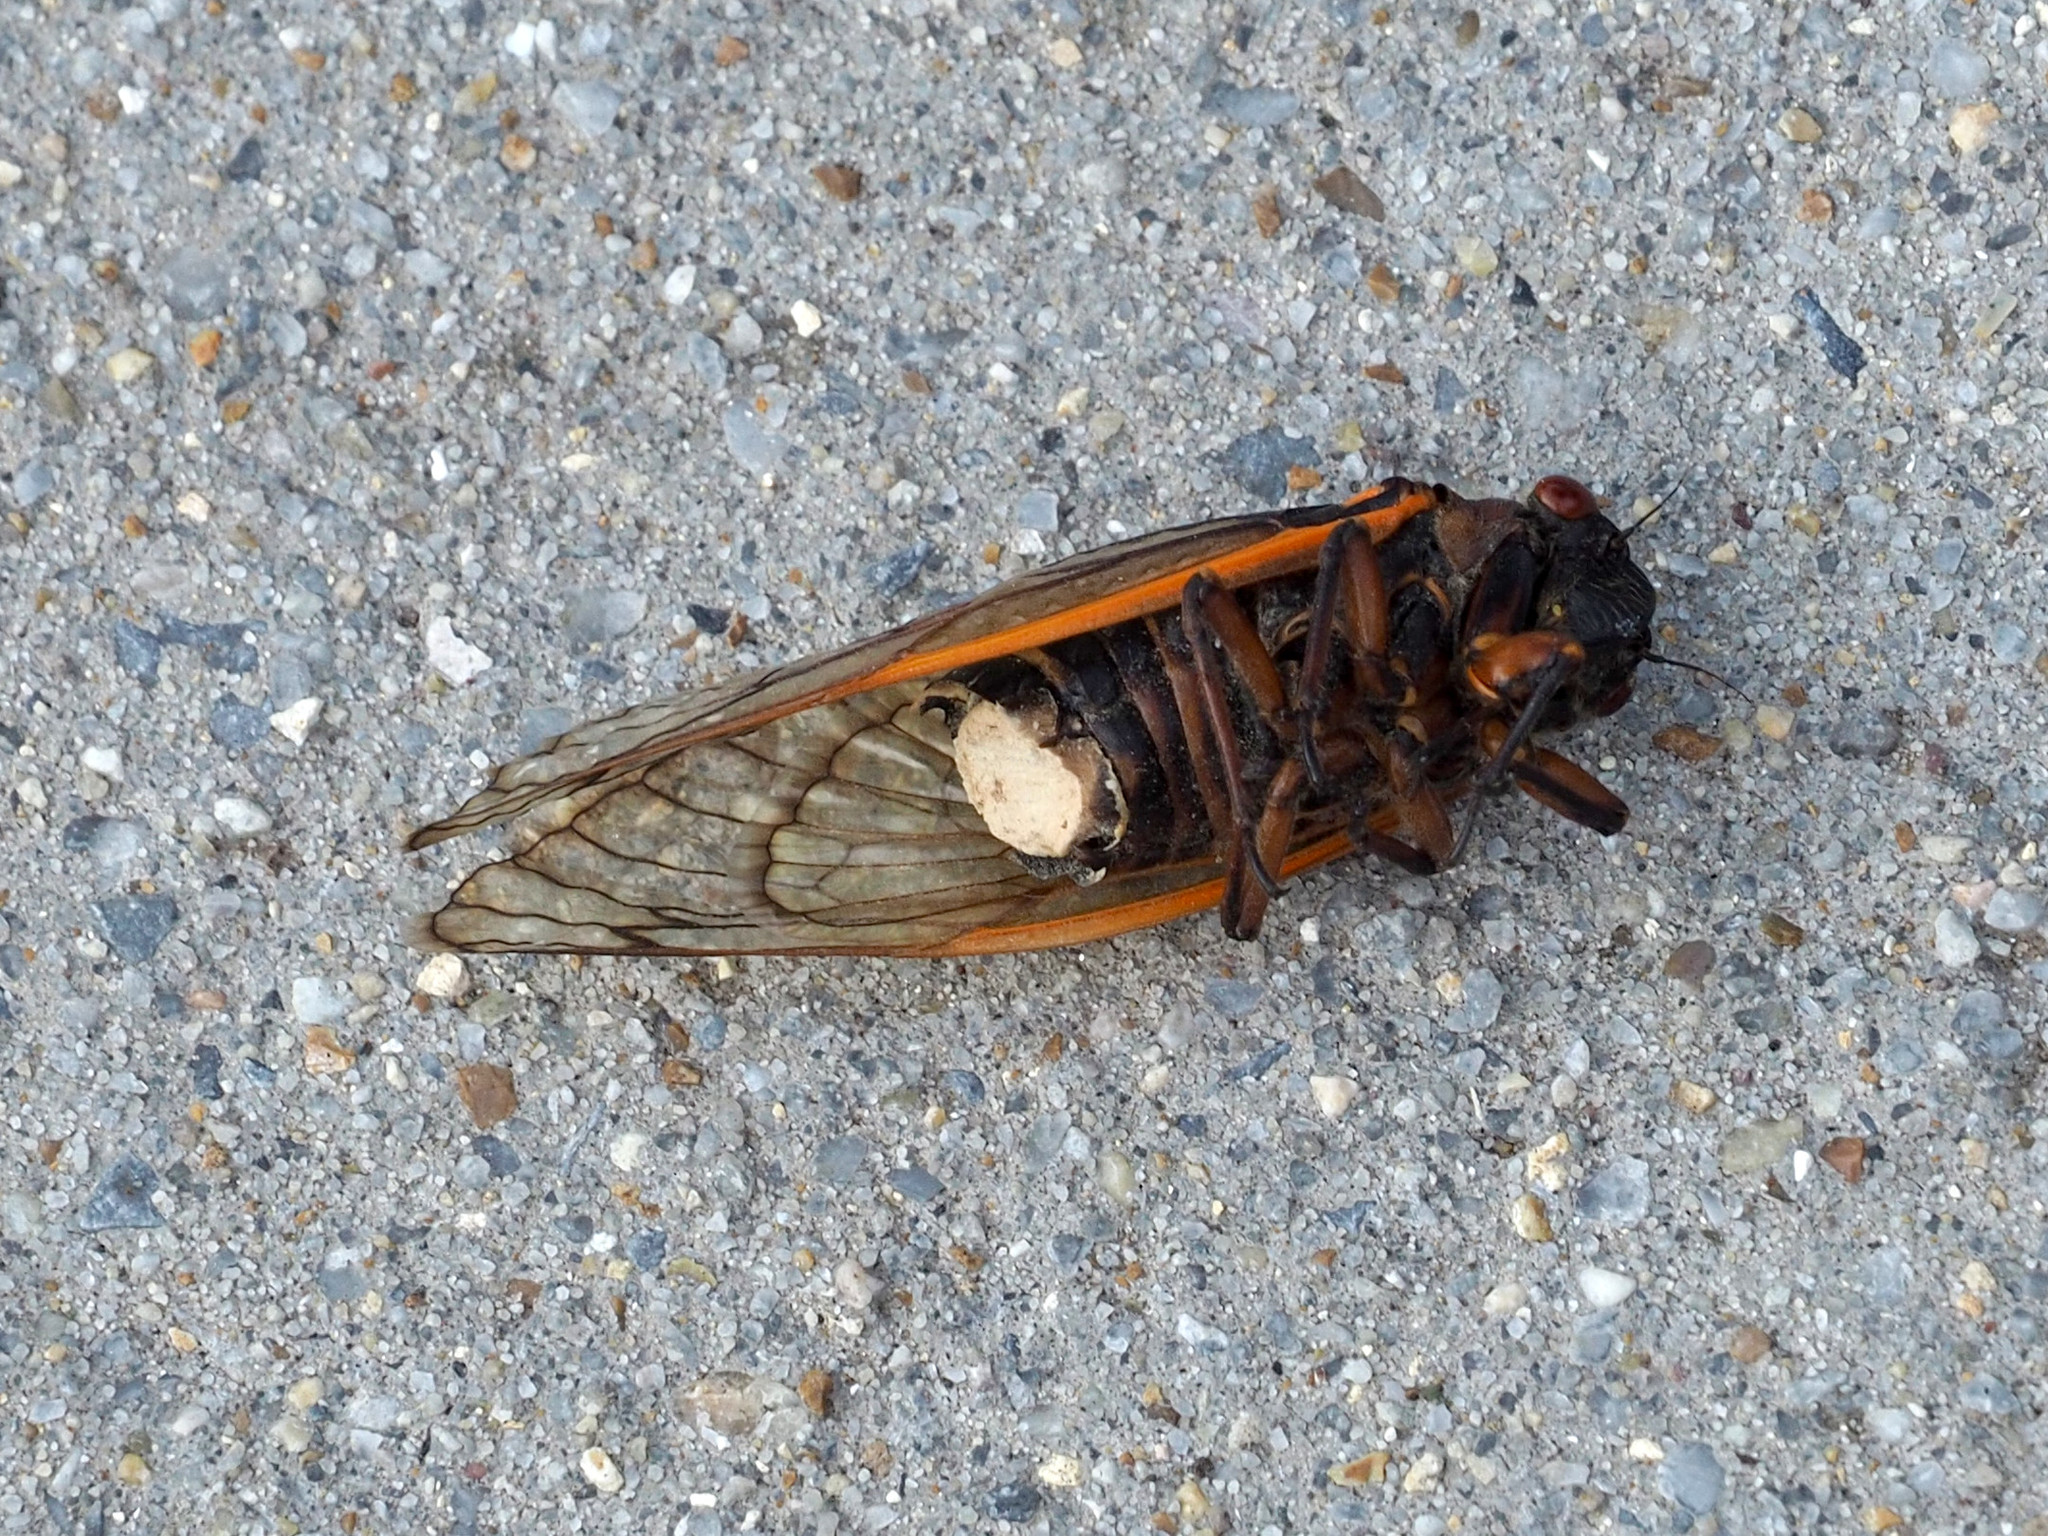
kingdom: Fungi
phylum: Entomophthoromycota
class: Entomophthoromycetes
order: Entomophthorales
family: Entomophthoraceae
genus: Massospora
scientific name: Massospora cicadina
